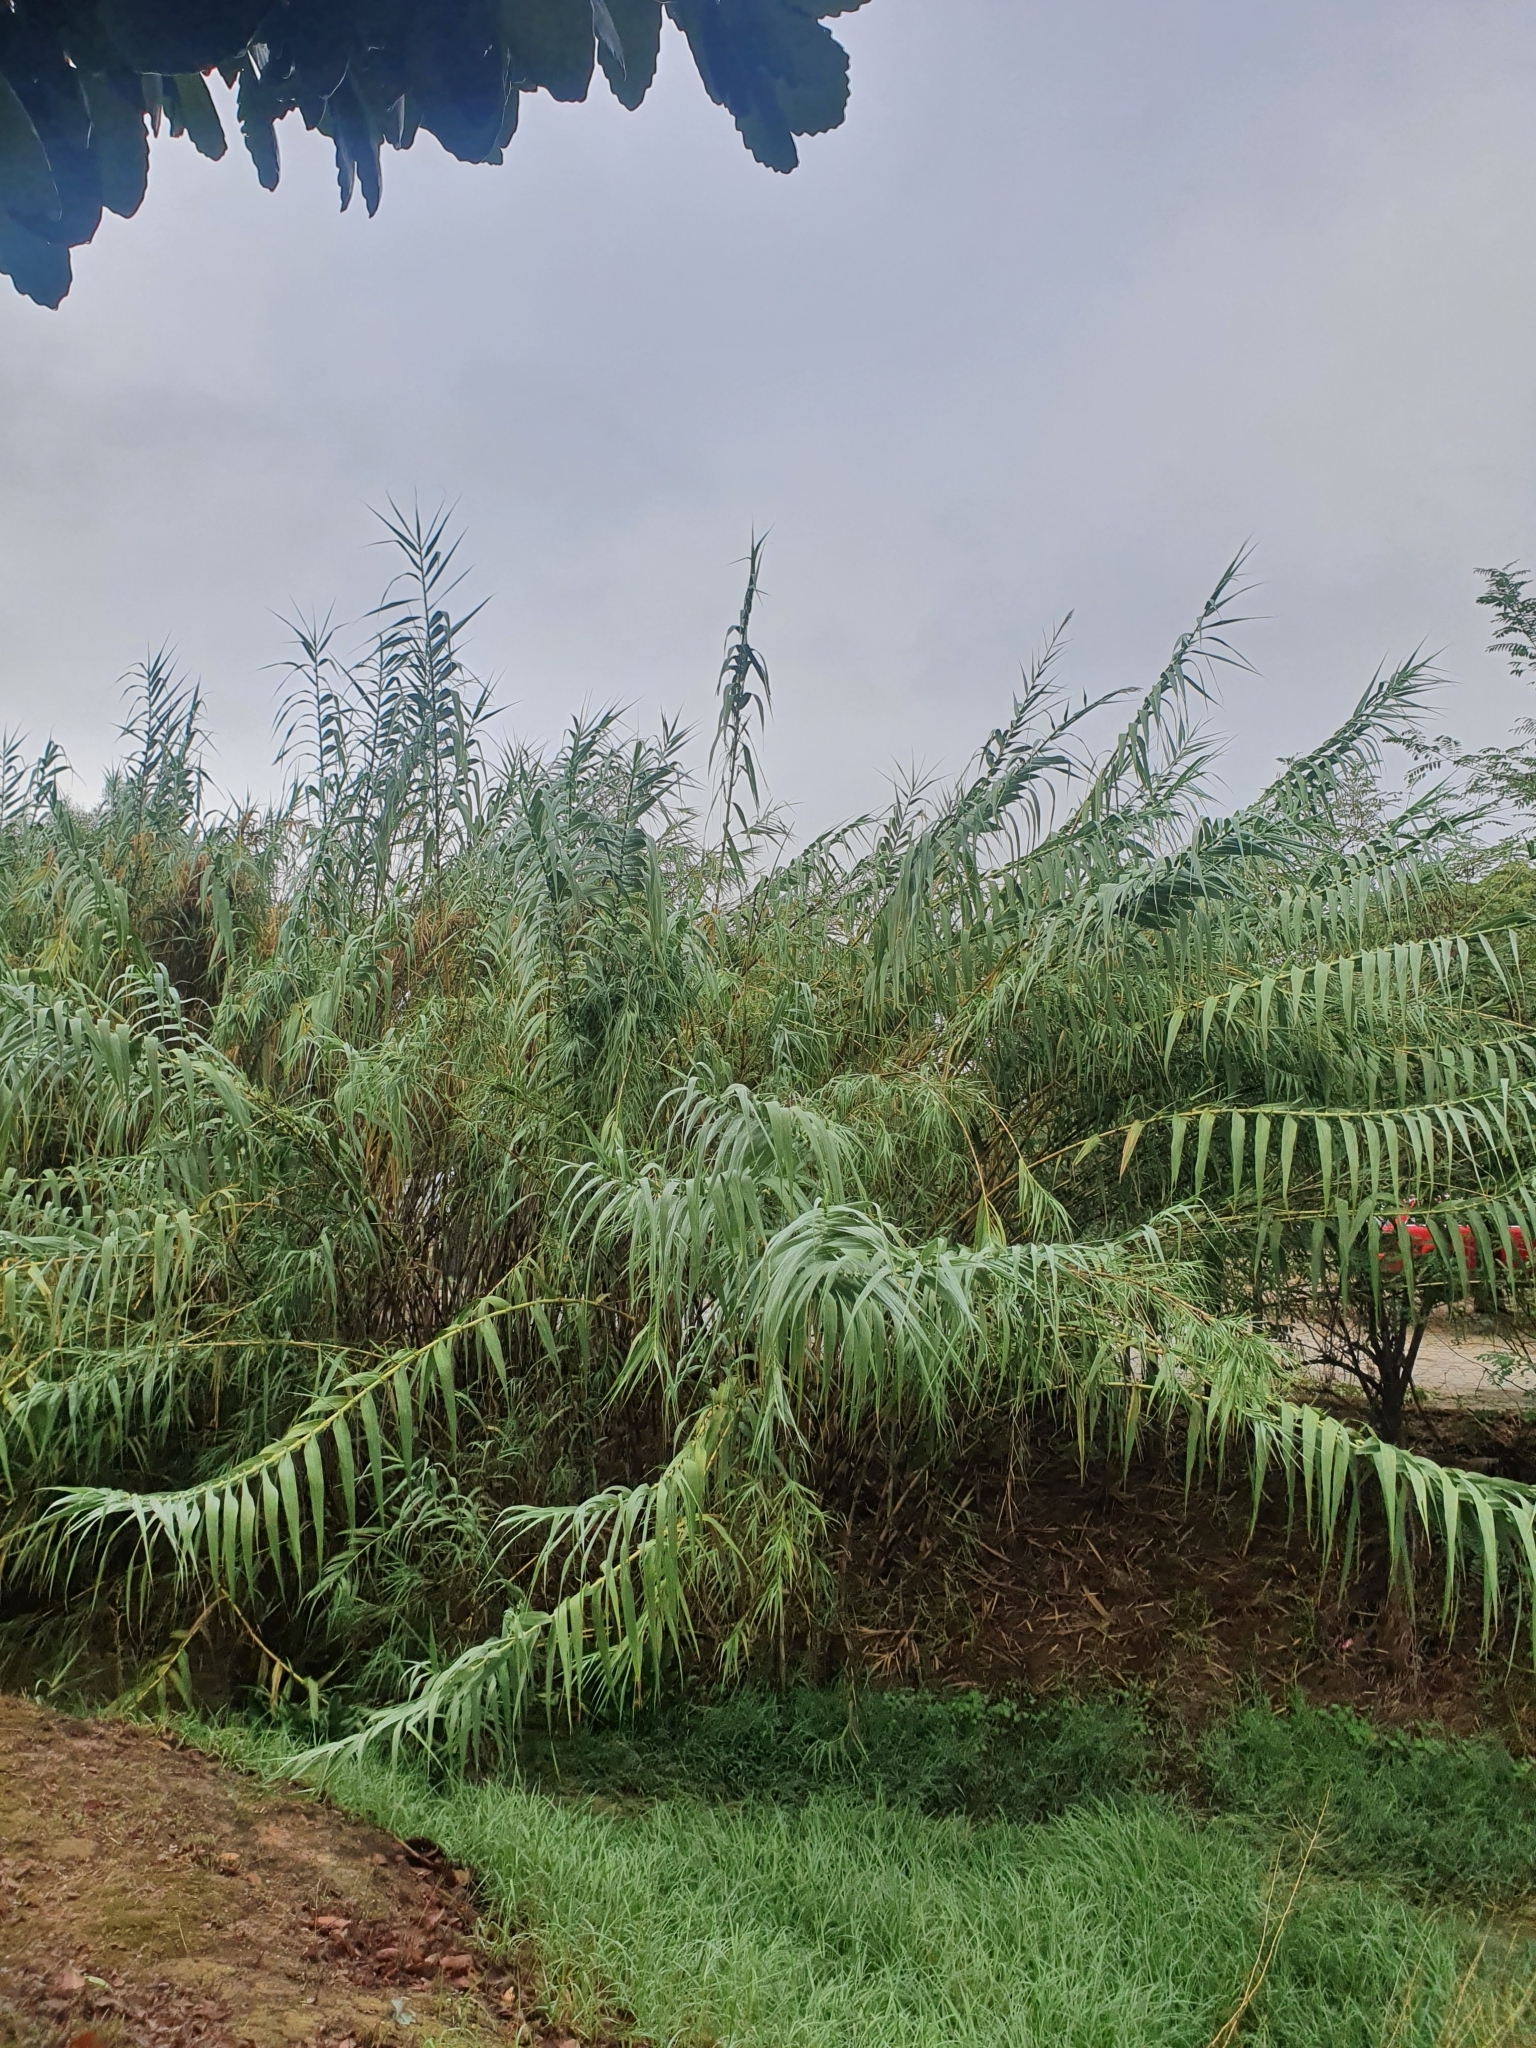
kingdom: Plantae
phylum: Tracheophyta
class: Liliopsida
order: Poales
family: Poaceae
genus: Arundo
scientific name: Arundo donax
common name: Giant reed
